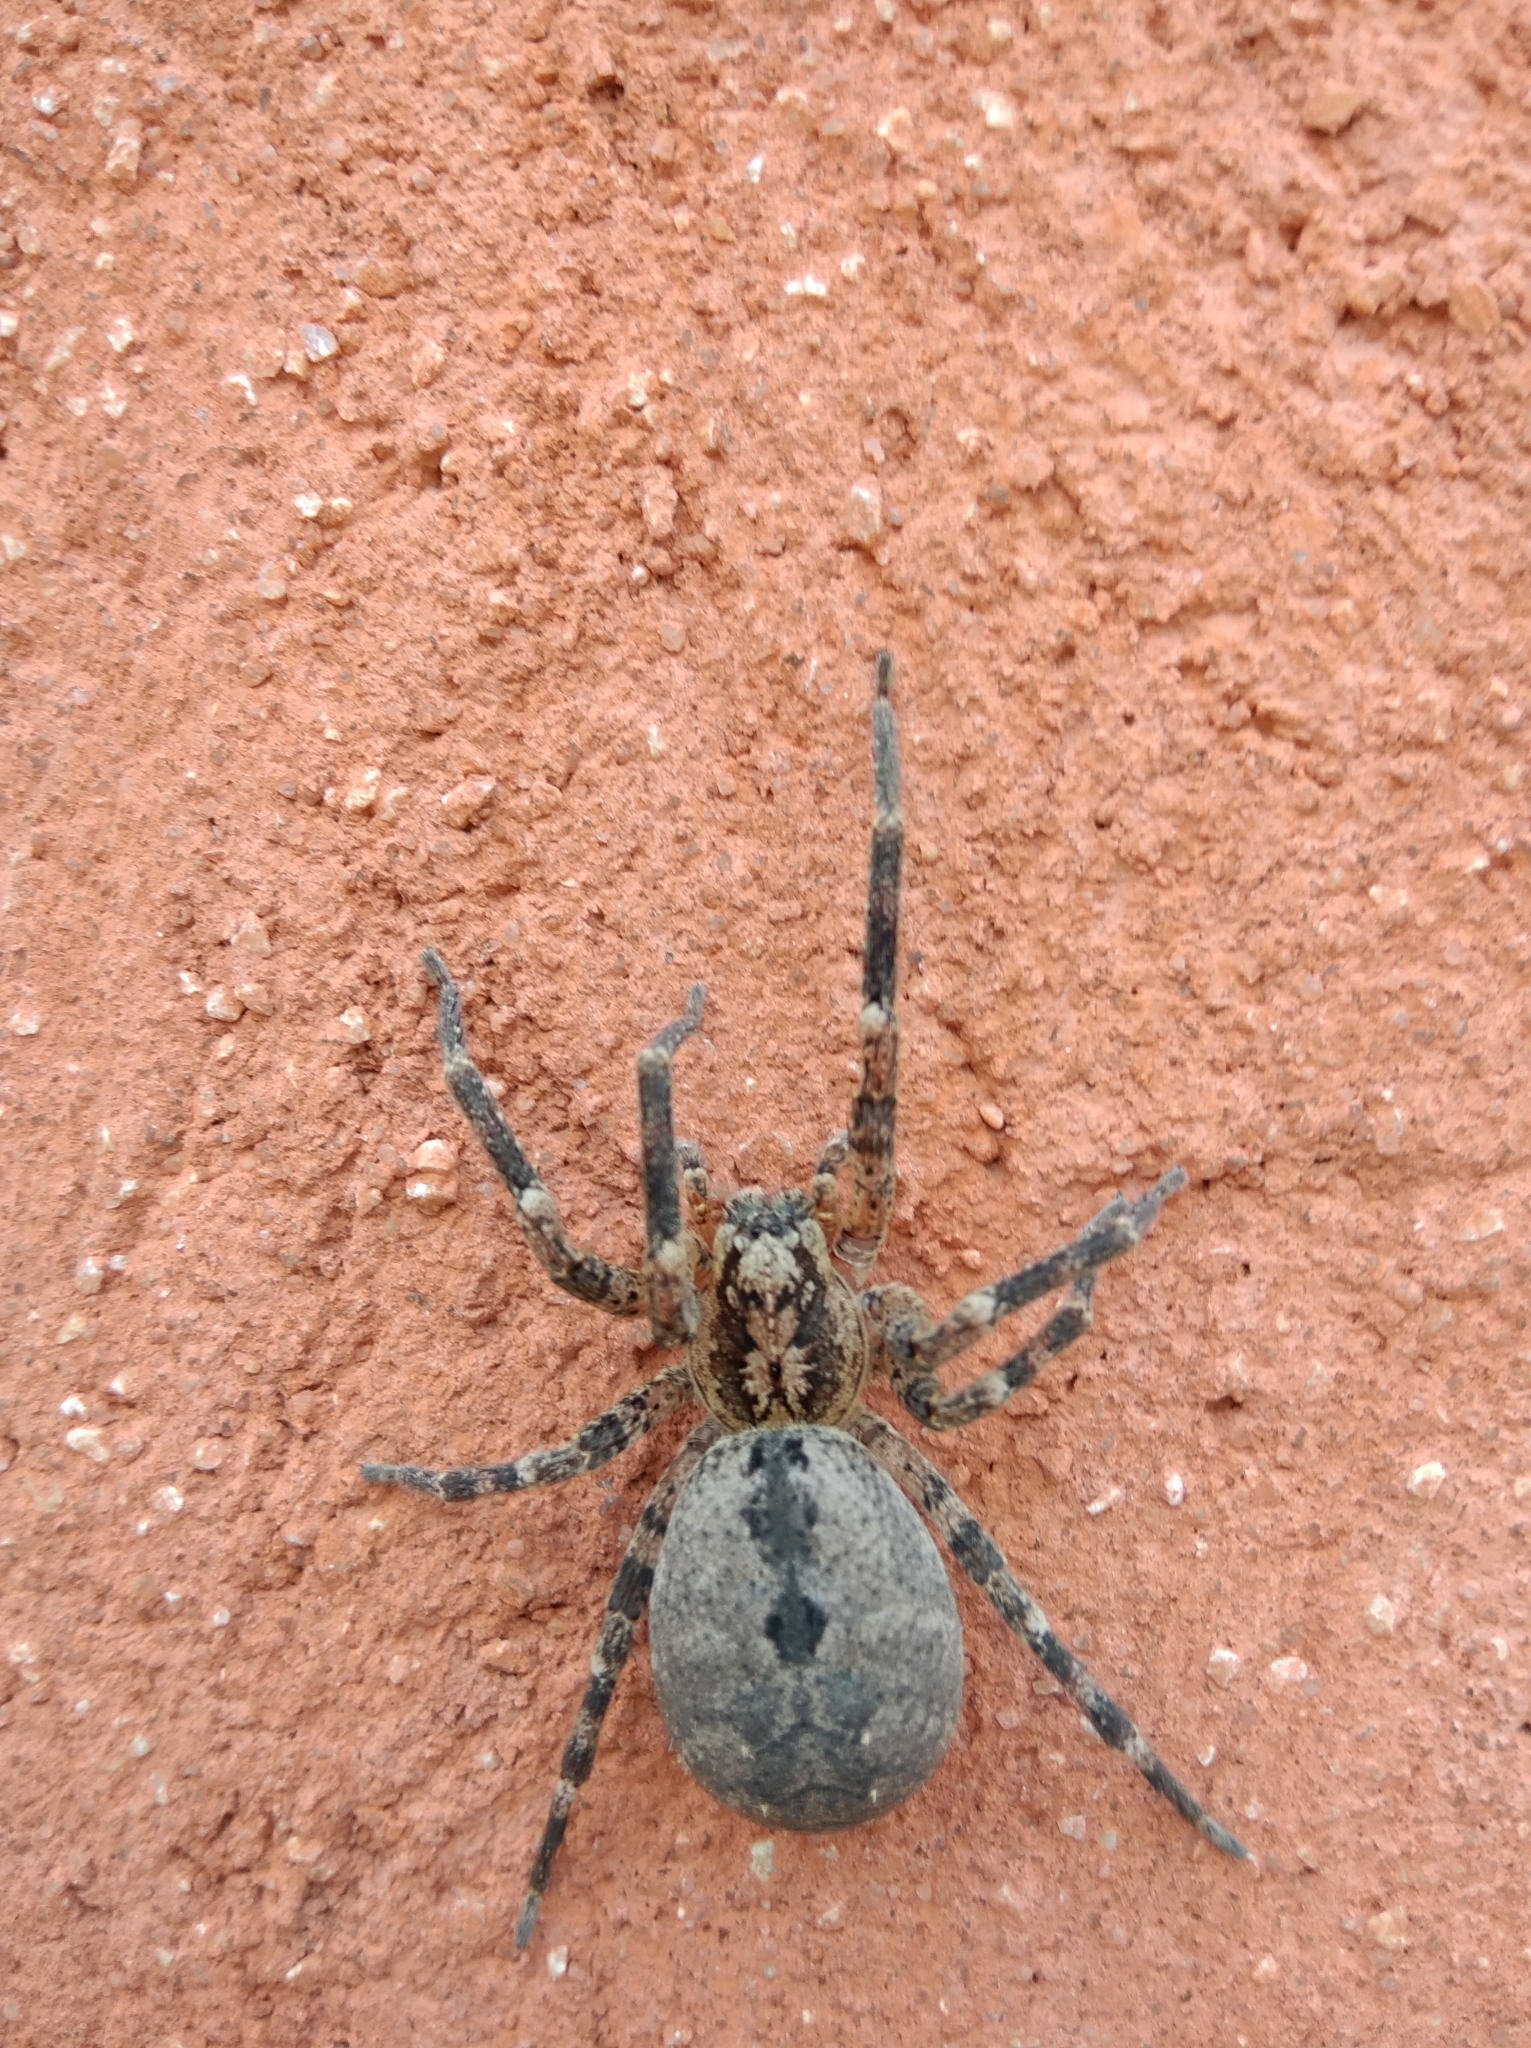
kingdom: Animalia
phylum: Arthropoda
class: Arachnida
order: Araneae
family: Zoropsidae
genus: Zoropsis
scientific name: Zoropsis spinimana
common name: Zoropsid spider
